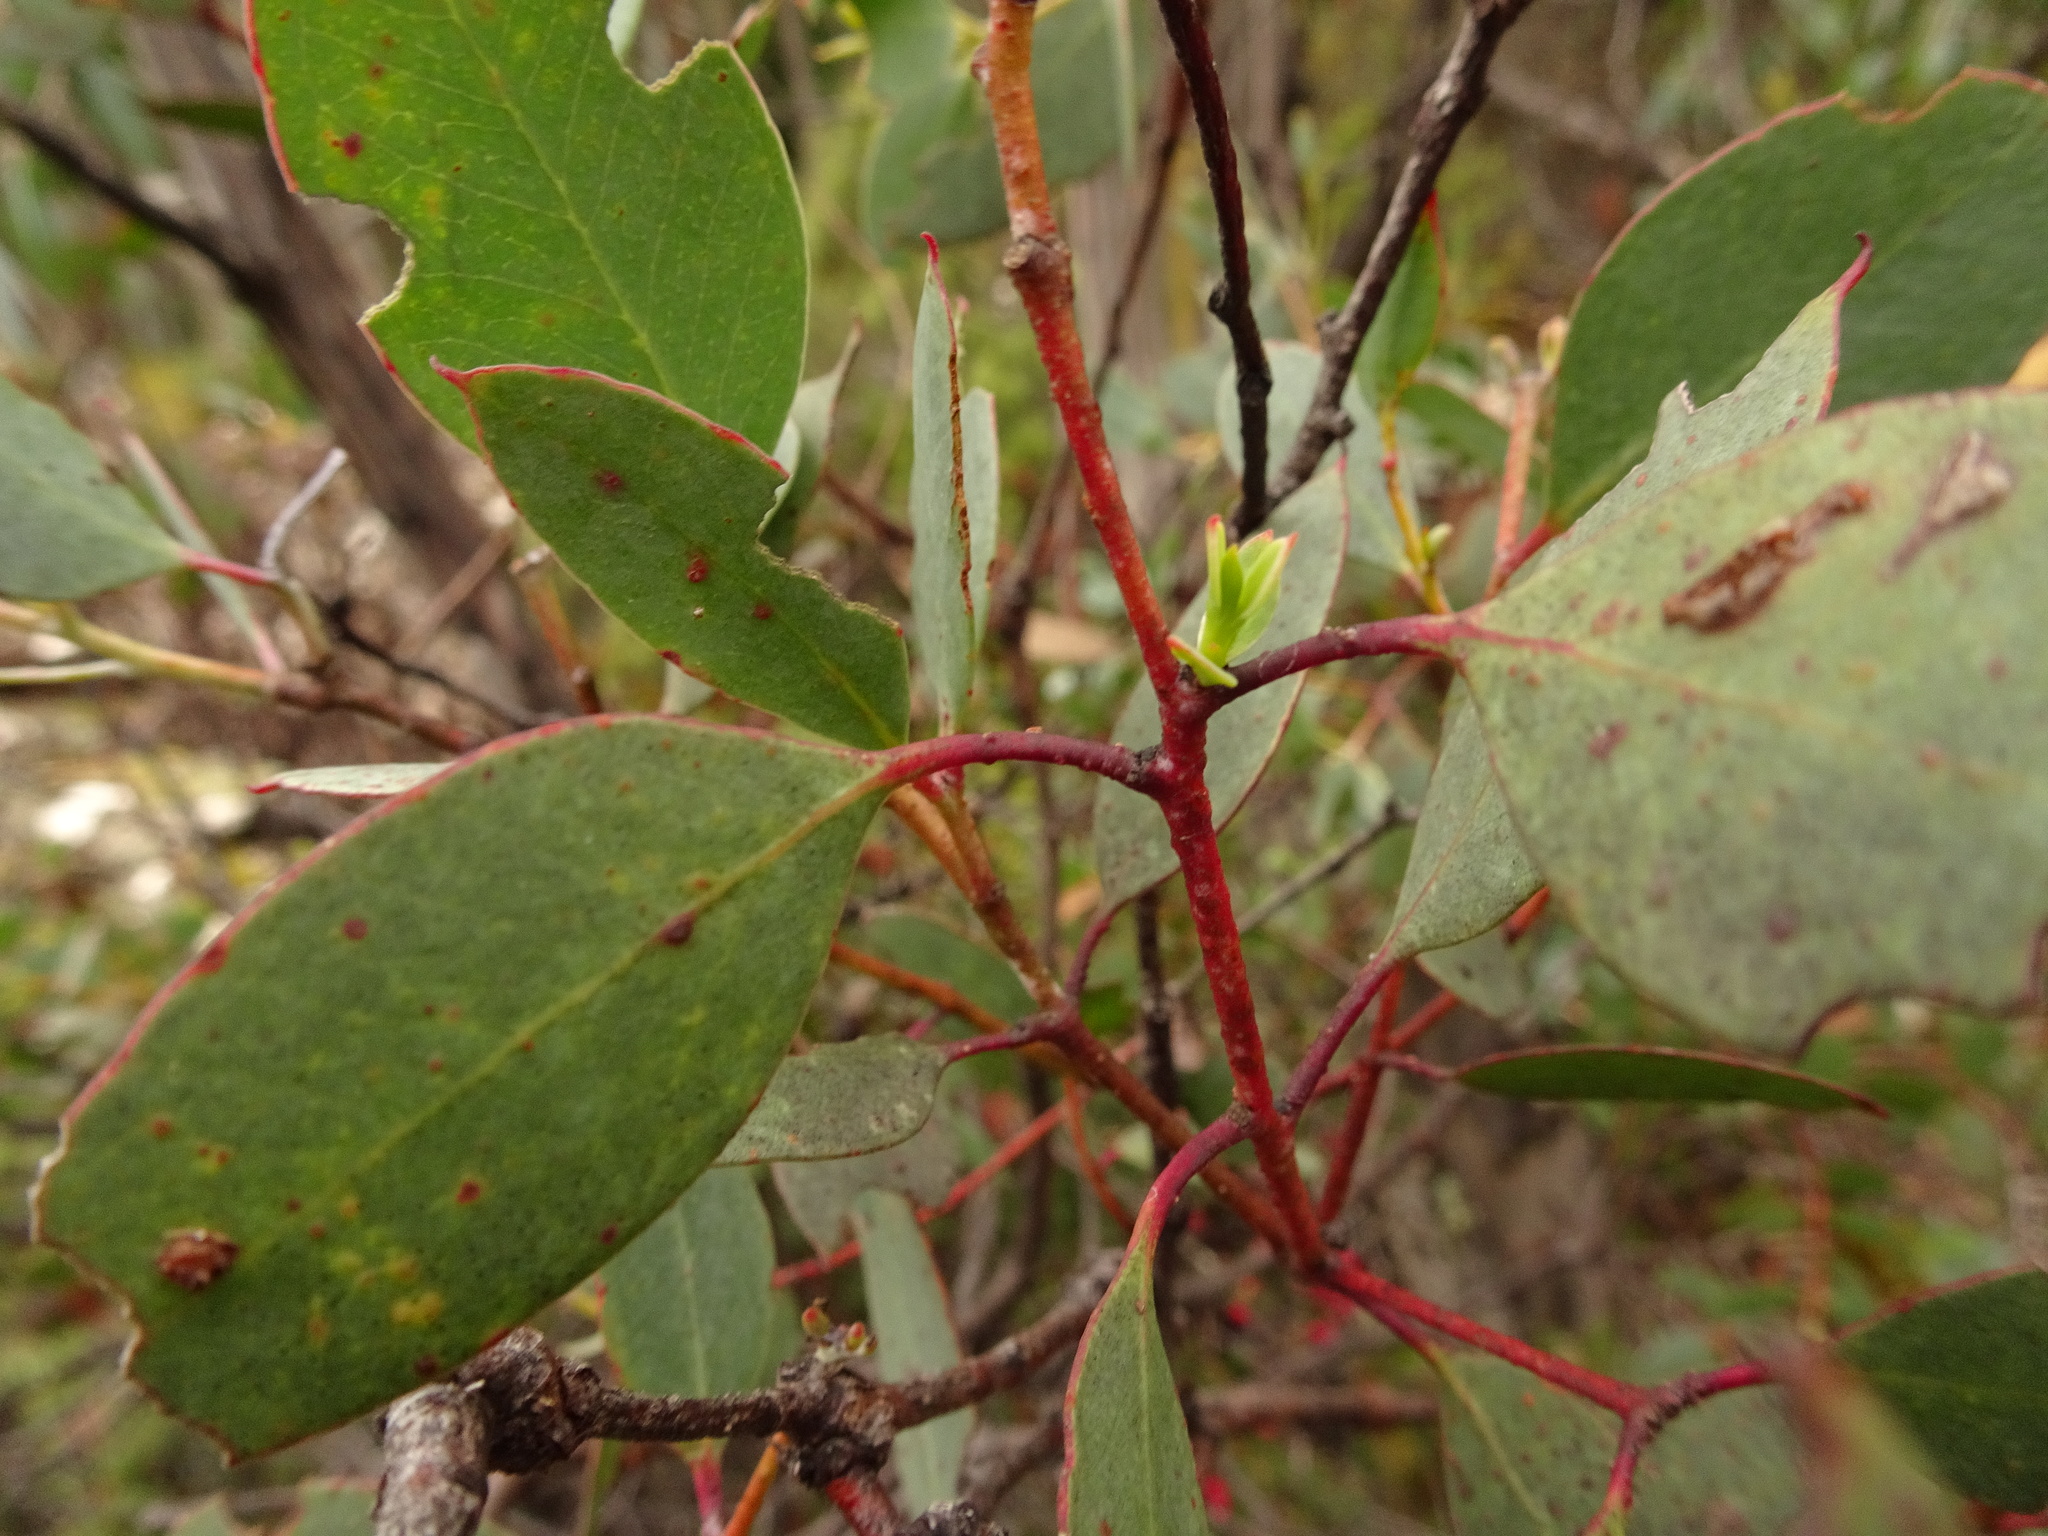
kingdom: Plantae
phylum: Tracheophyta
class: Magnoliopsida
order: Myrtales
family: Myrtaceae
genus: Eucalyptus
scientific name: Eucalyptus coccifera
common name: Tasmanian snow-gum
